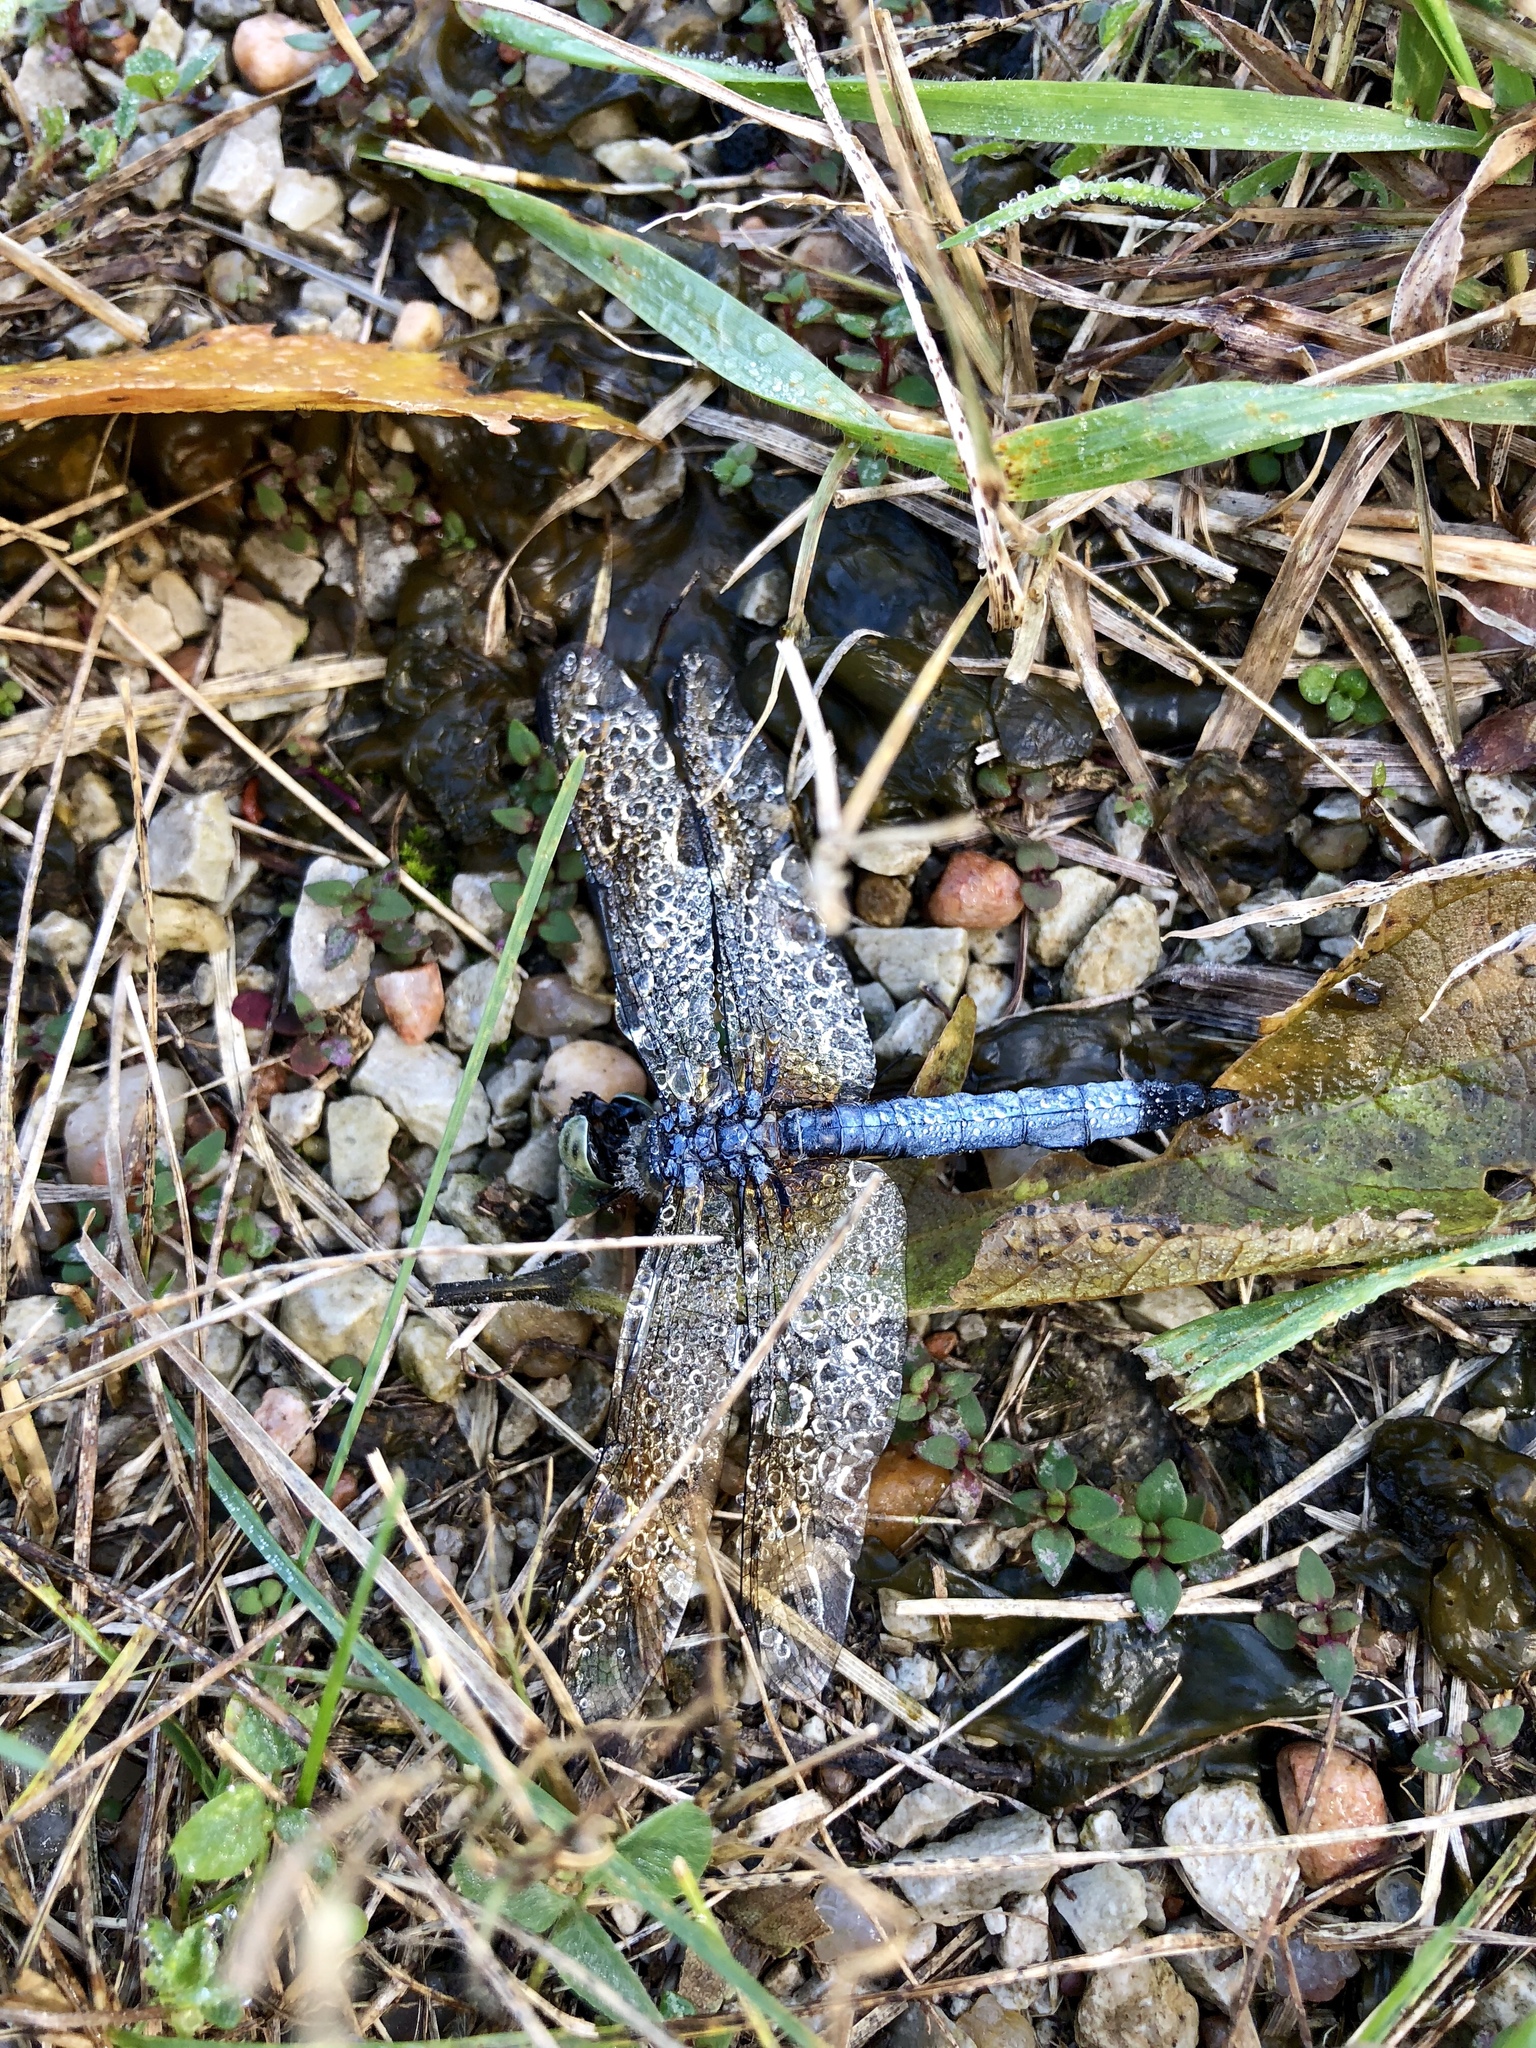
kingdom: Animalia
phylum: Arthropoda
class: Insecta
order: Odonata
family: Libellulidae
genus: Pachydiplax
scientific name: Pachydiplax longipennis
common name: Blue dasher
